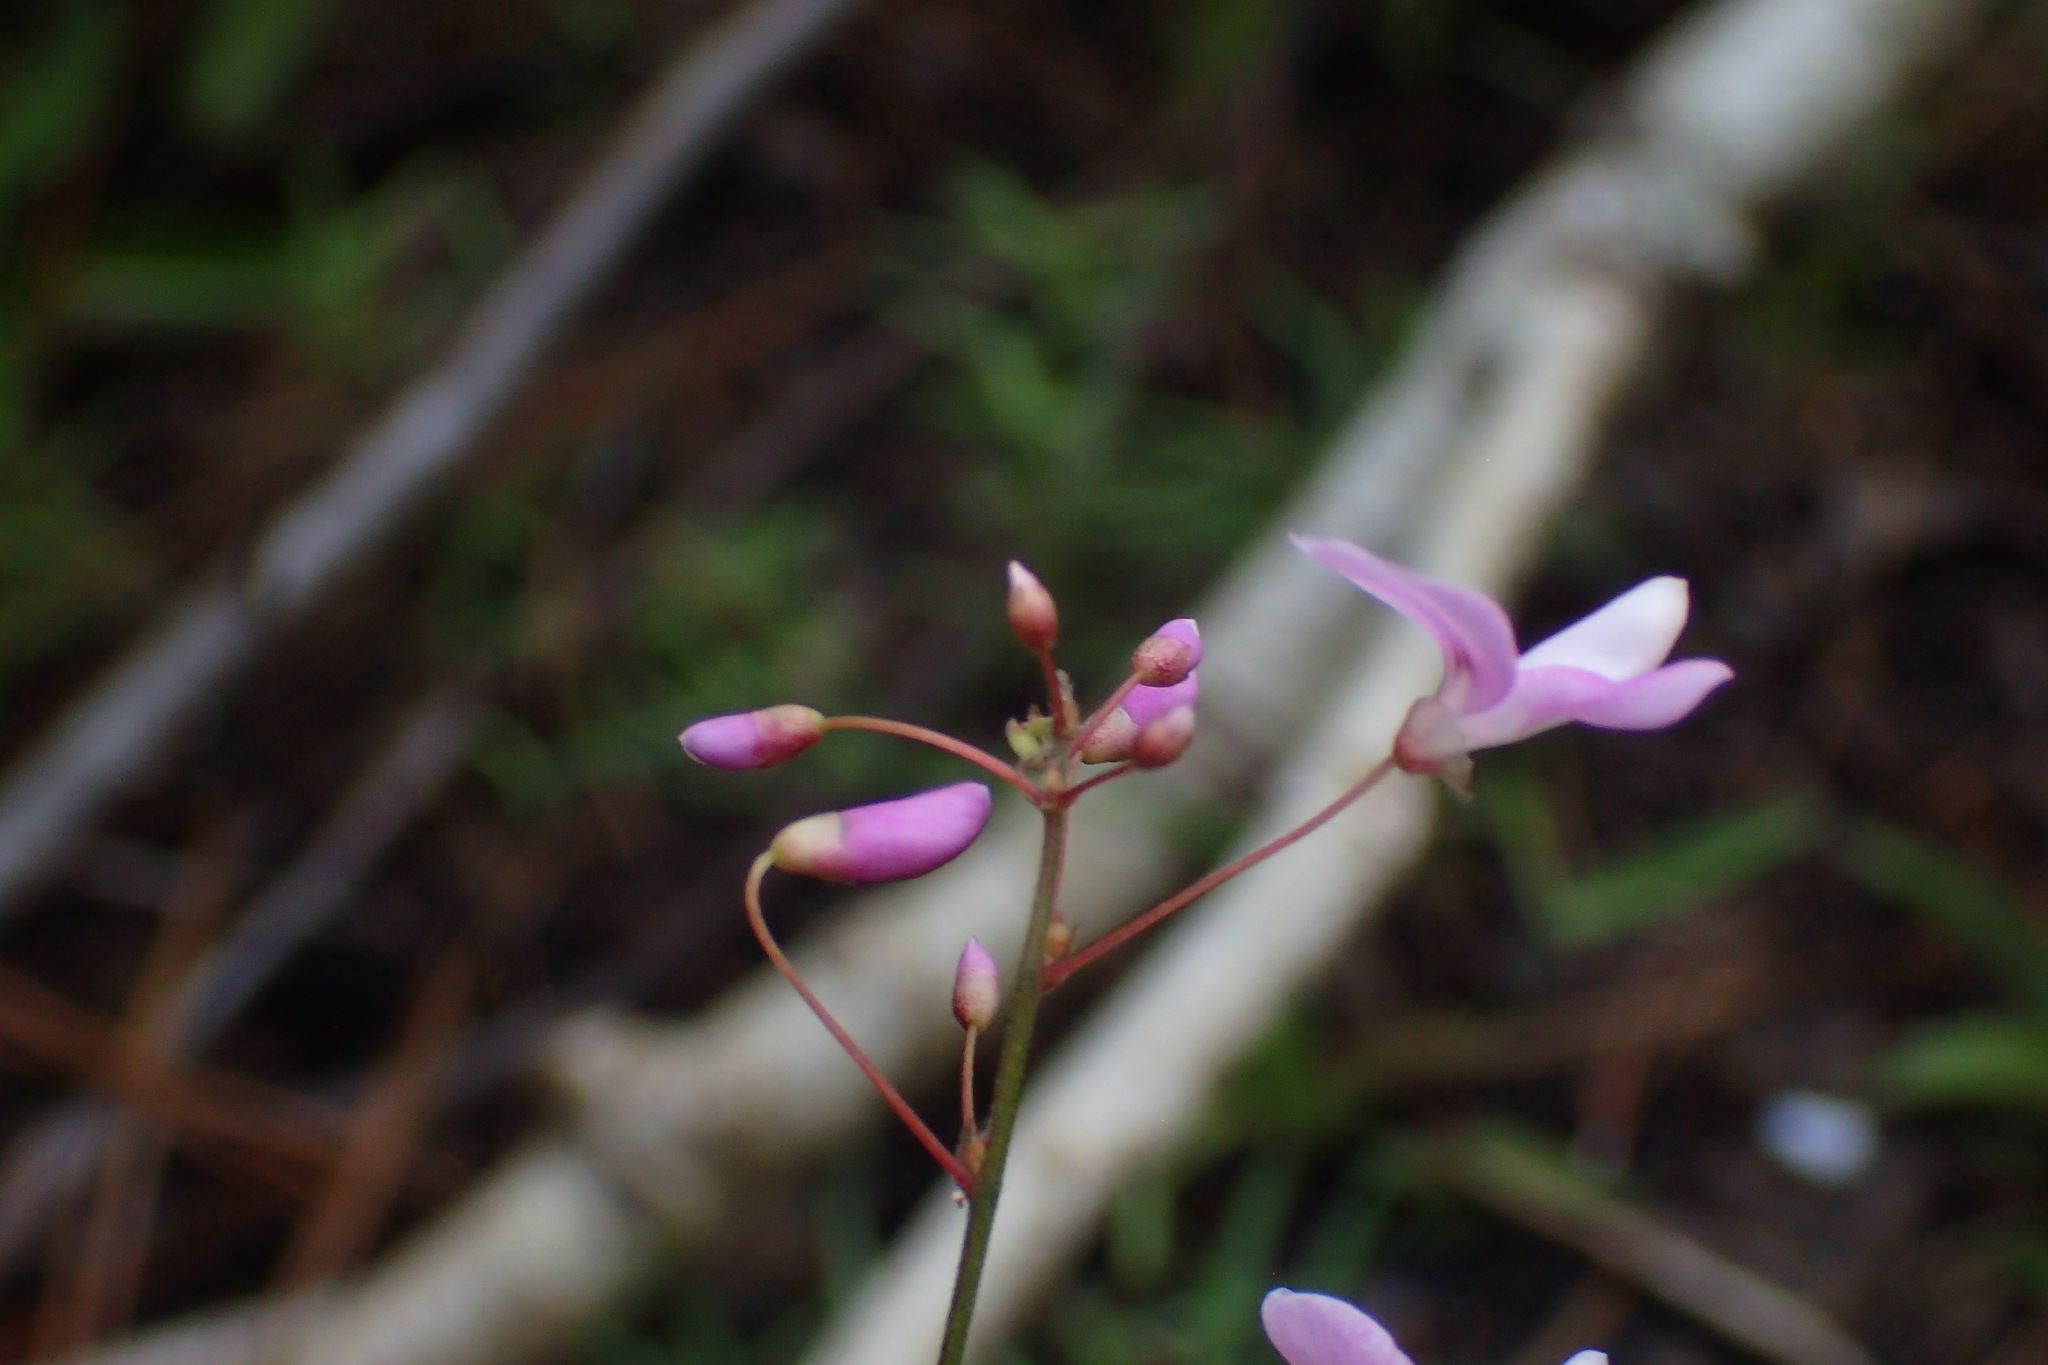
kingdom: Plantae
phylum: Tracheophyta
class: Magnoliopsida
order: Fabales
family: Fabaceae
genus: Hylodesmum
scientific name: Hylodesmum nudiflorum
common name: Bare-stemmed tick-trefoil
